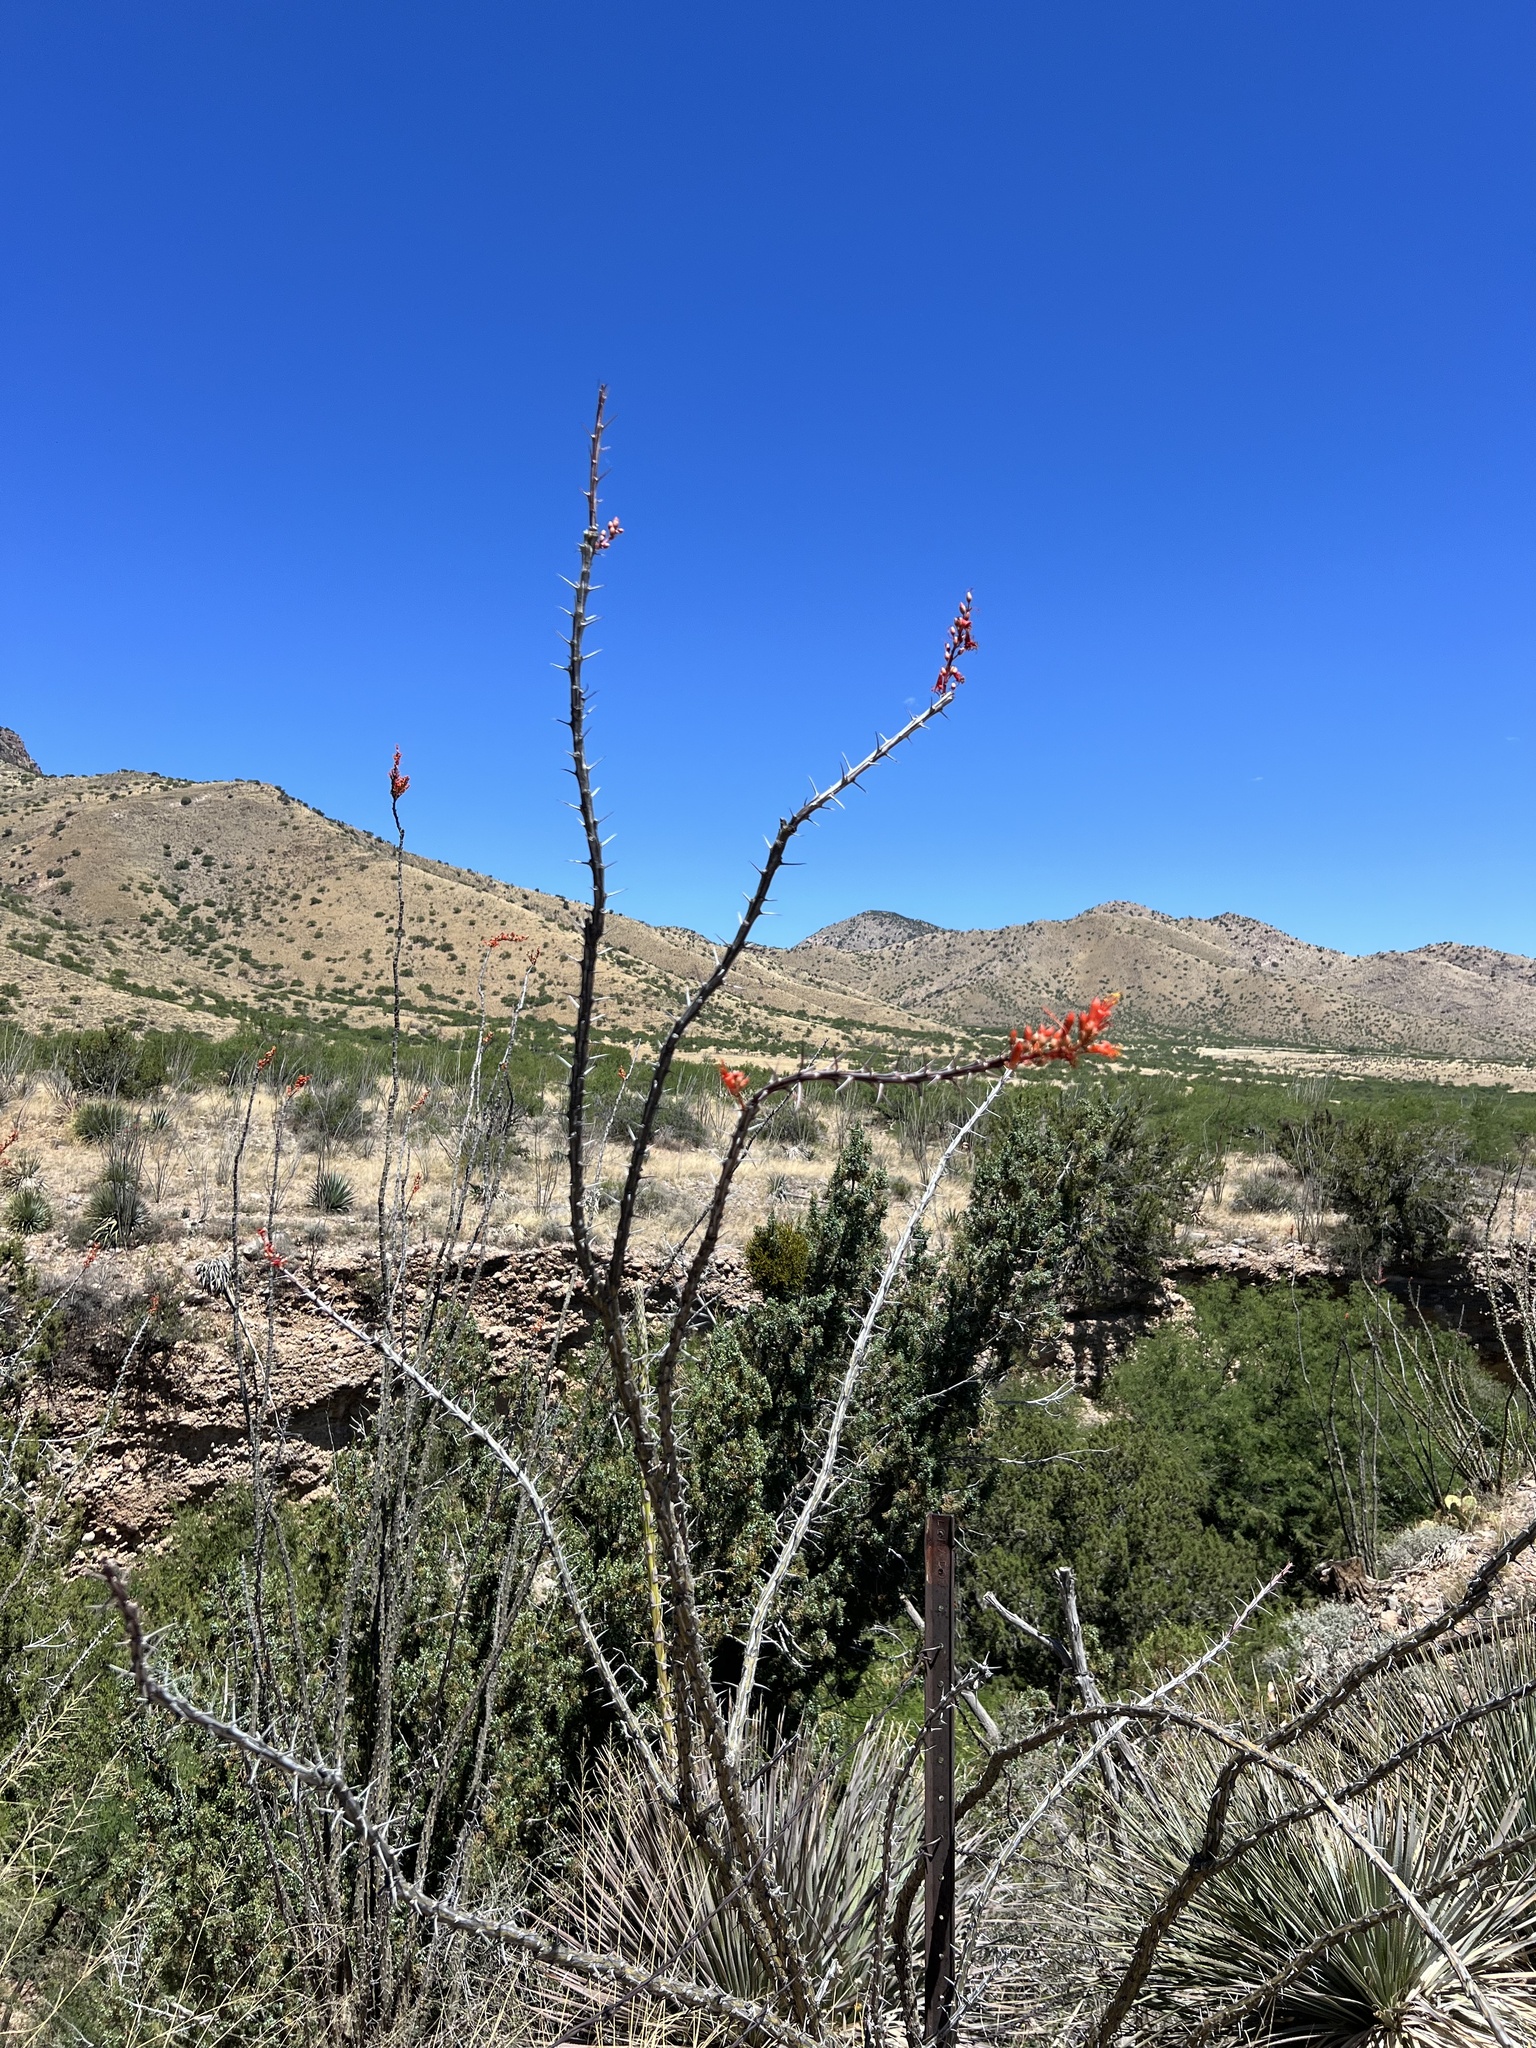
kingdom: Plantae
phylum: Tracheophyta
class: Magnoliopsida
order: Ericales
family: Fouquieriaceae
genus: Fouquieria
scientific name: Fouquieria splendens
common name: Vine-cactus
